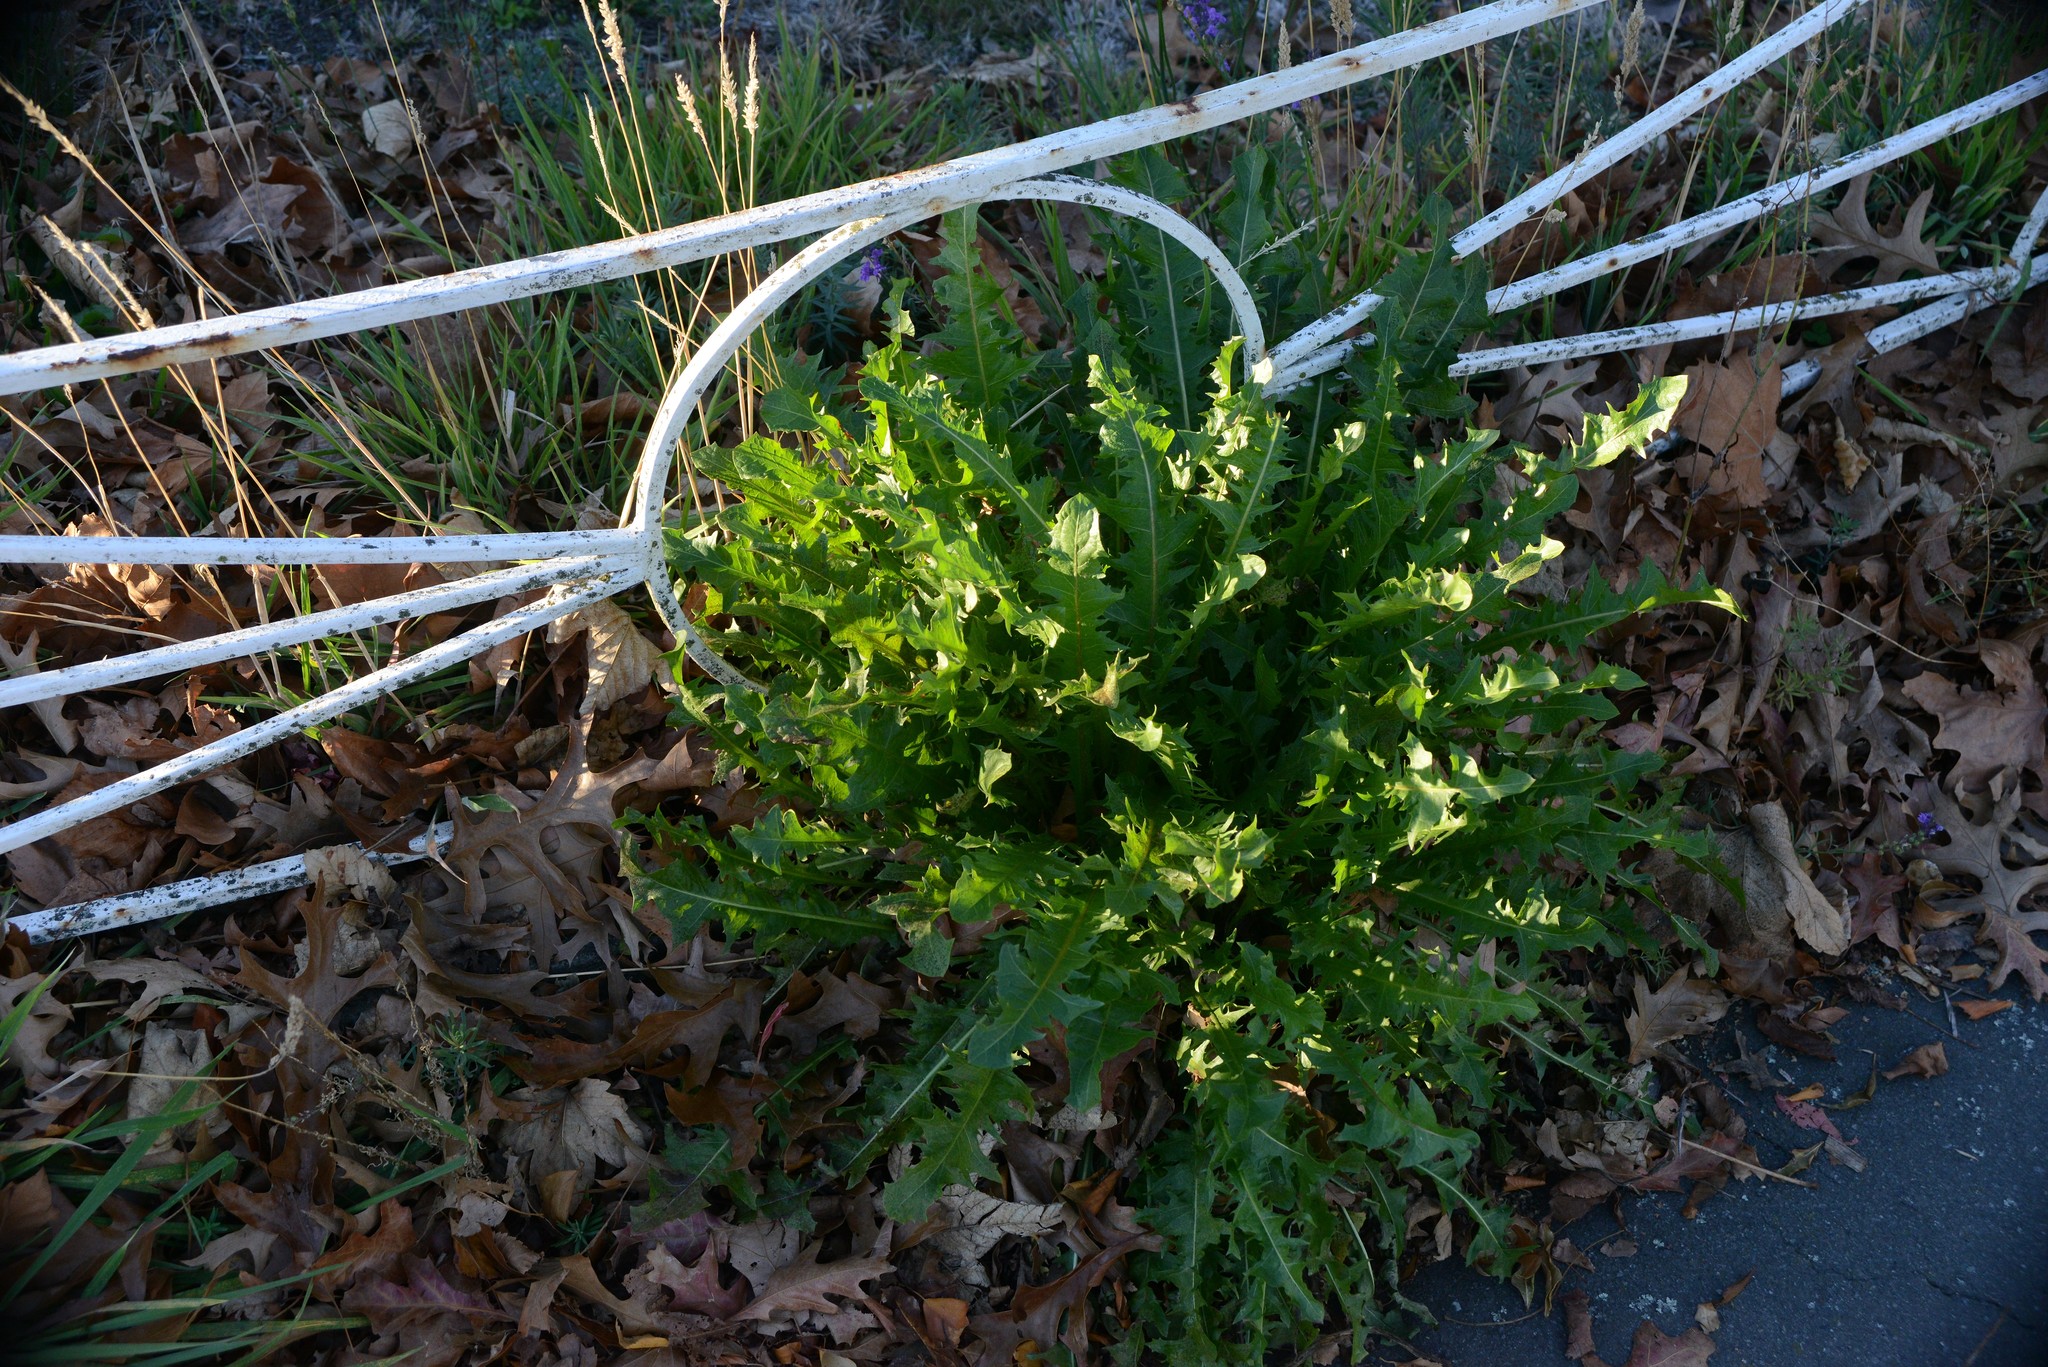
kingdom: Plantae
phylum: Tracheophyta
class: Magnoliopsida
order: Asterales
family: Asteraceae
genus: Taraxacum
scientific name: Taraxacum officinale
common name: Common dandelion
